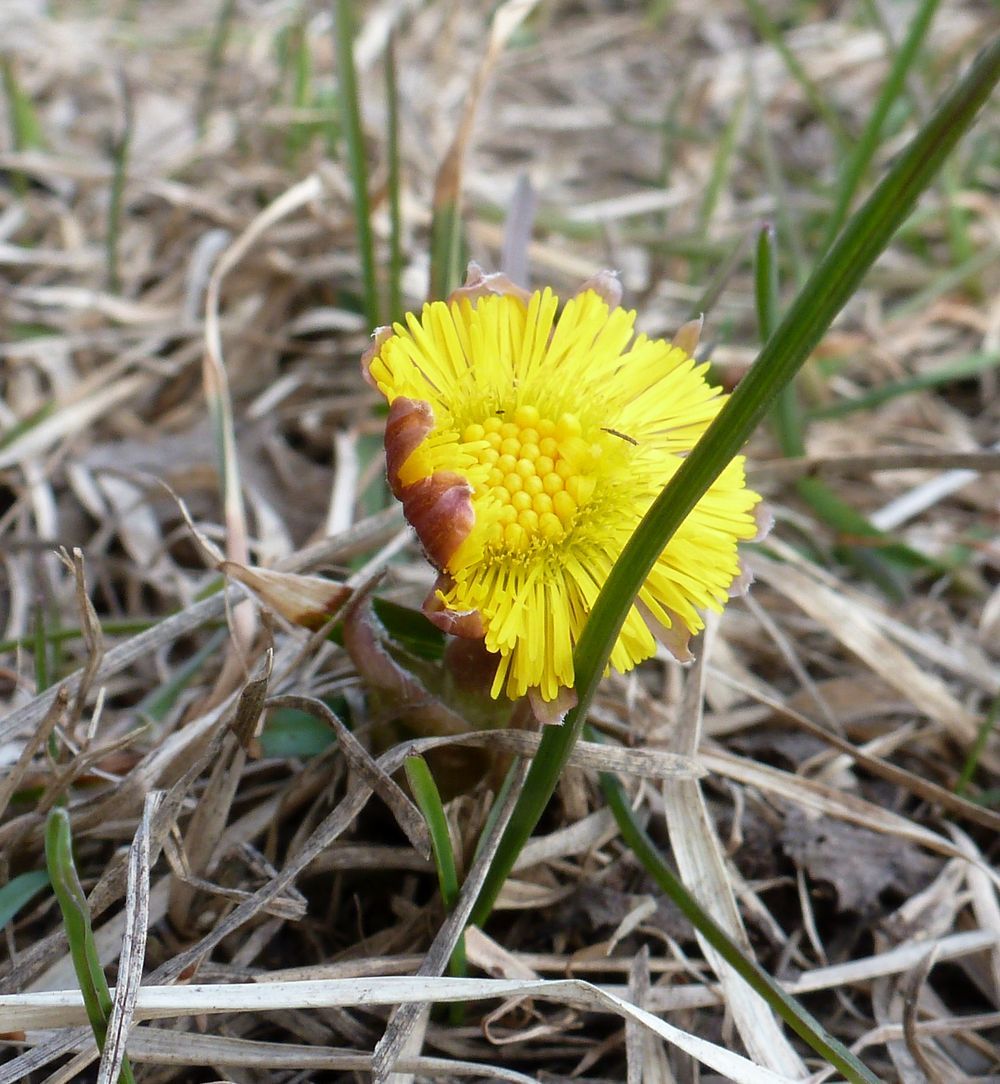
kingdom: Plantae
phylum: Tracheophyta
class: Magnoliopsida
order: Asterales
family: Asteraceae
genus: Tussilago
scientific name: Tussilago farfara
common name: Coltsfoot
